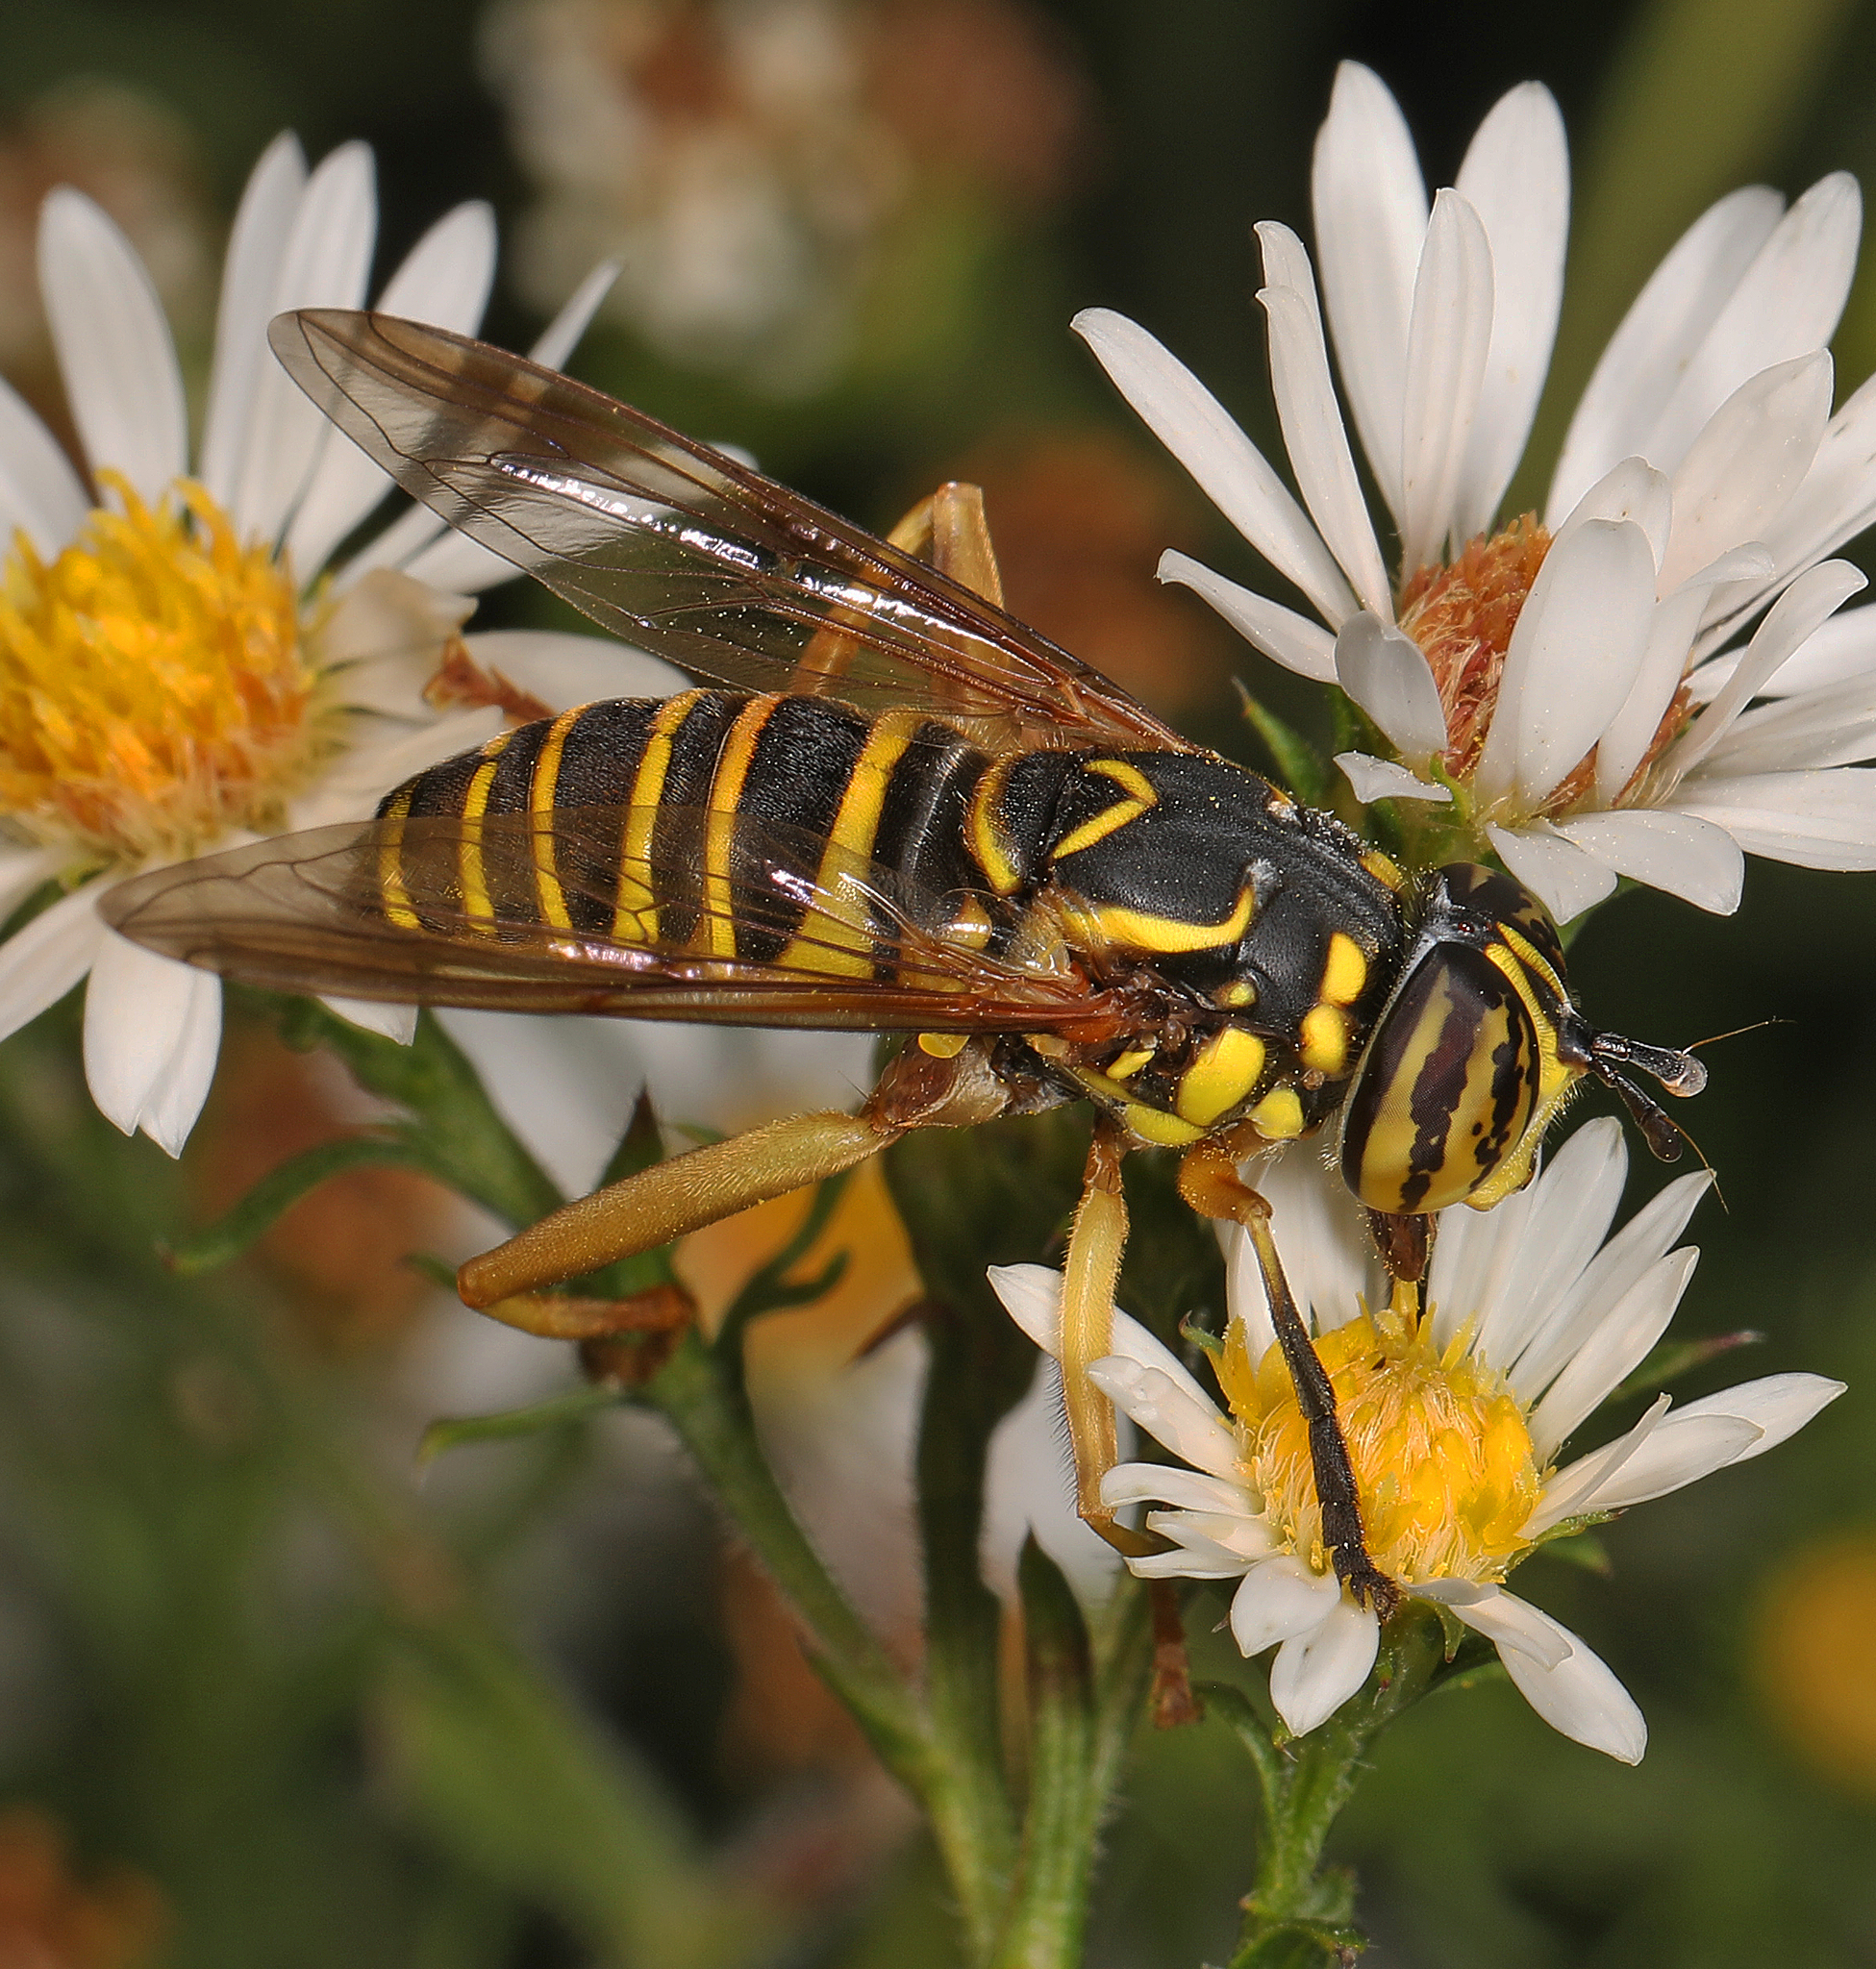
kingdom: Animalia
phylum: Arthropoda
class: Insecta
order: Diptera
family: Syrphidae
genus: Spilomyia
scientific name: Spilomyia longicornis
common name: Eastern hornet fly
